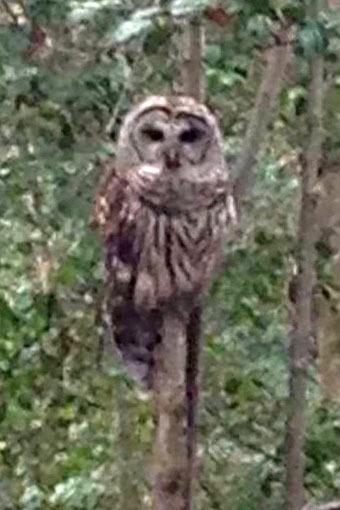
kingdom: Animalia
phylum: Chordata
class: Aves
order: Strigiformes
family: Strigidae
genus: Strix
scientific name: Strix varia
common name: Barred owl
